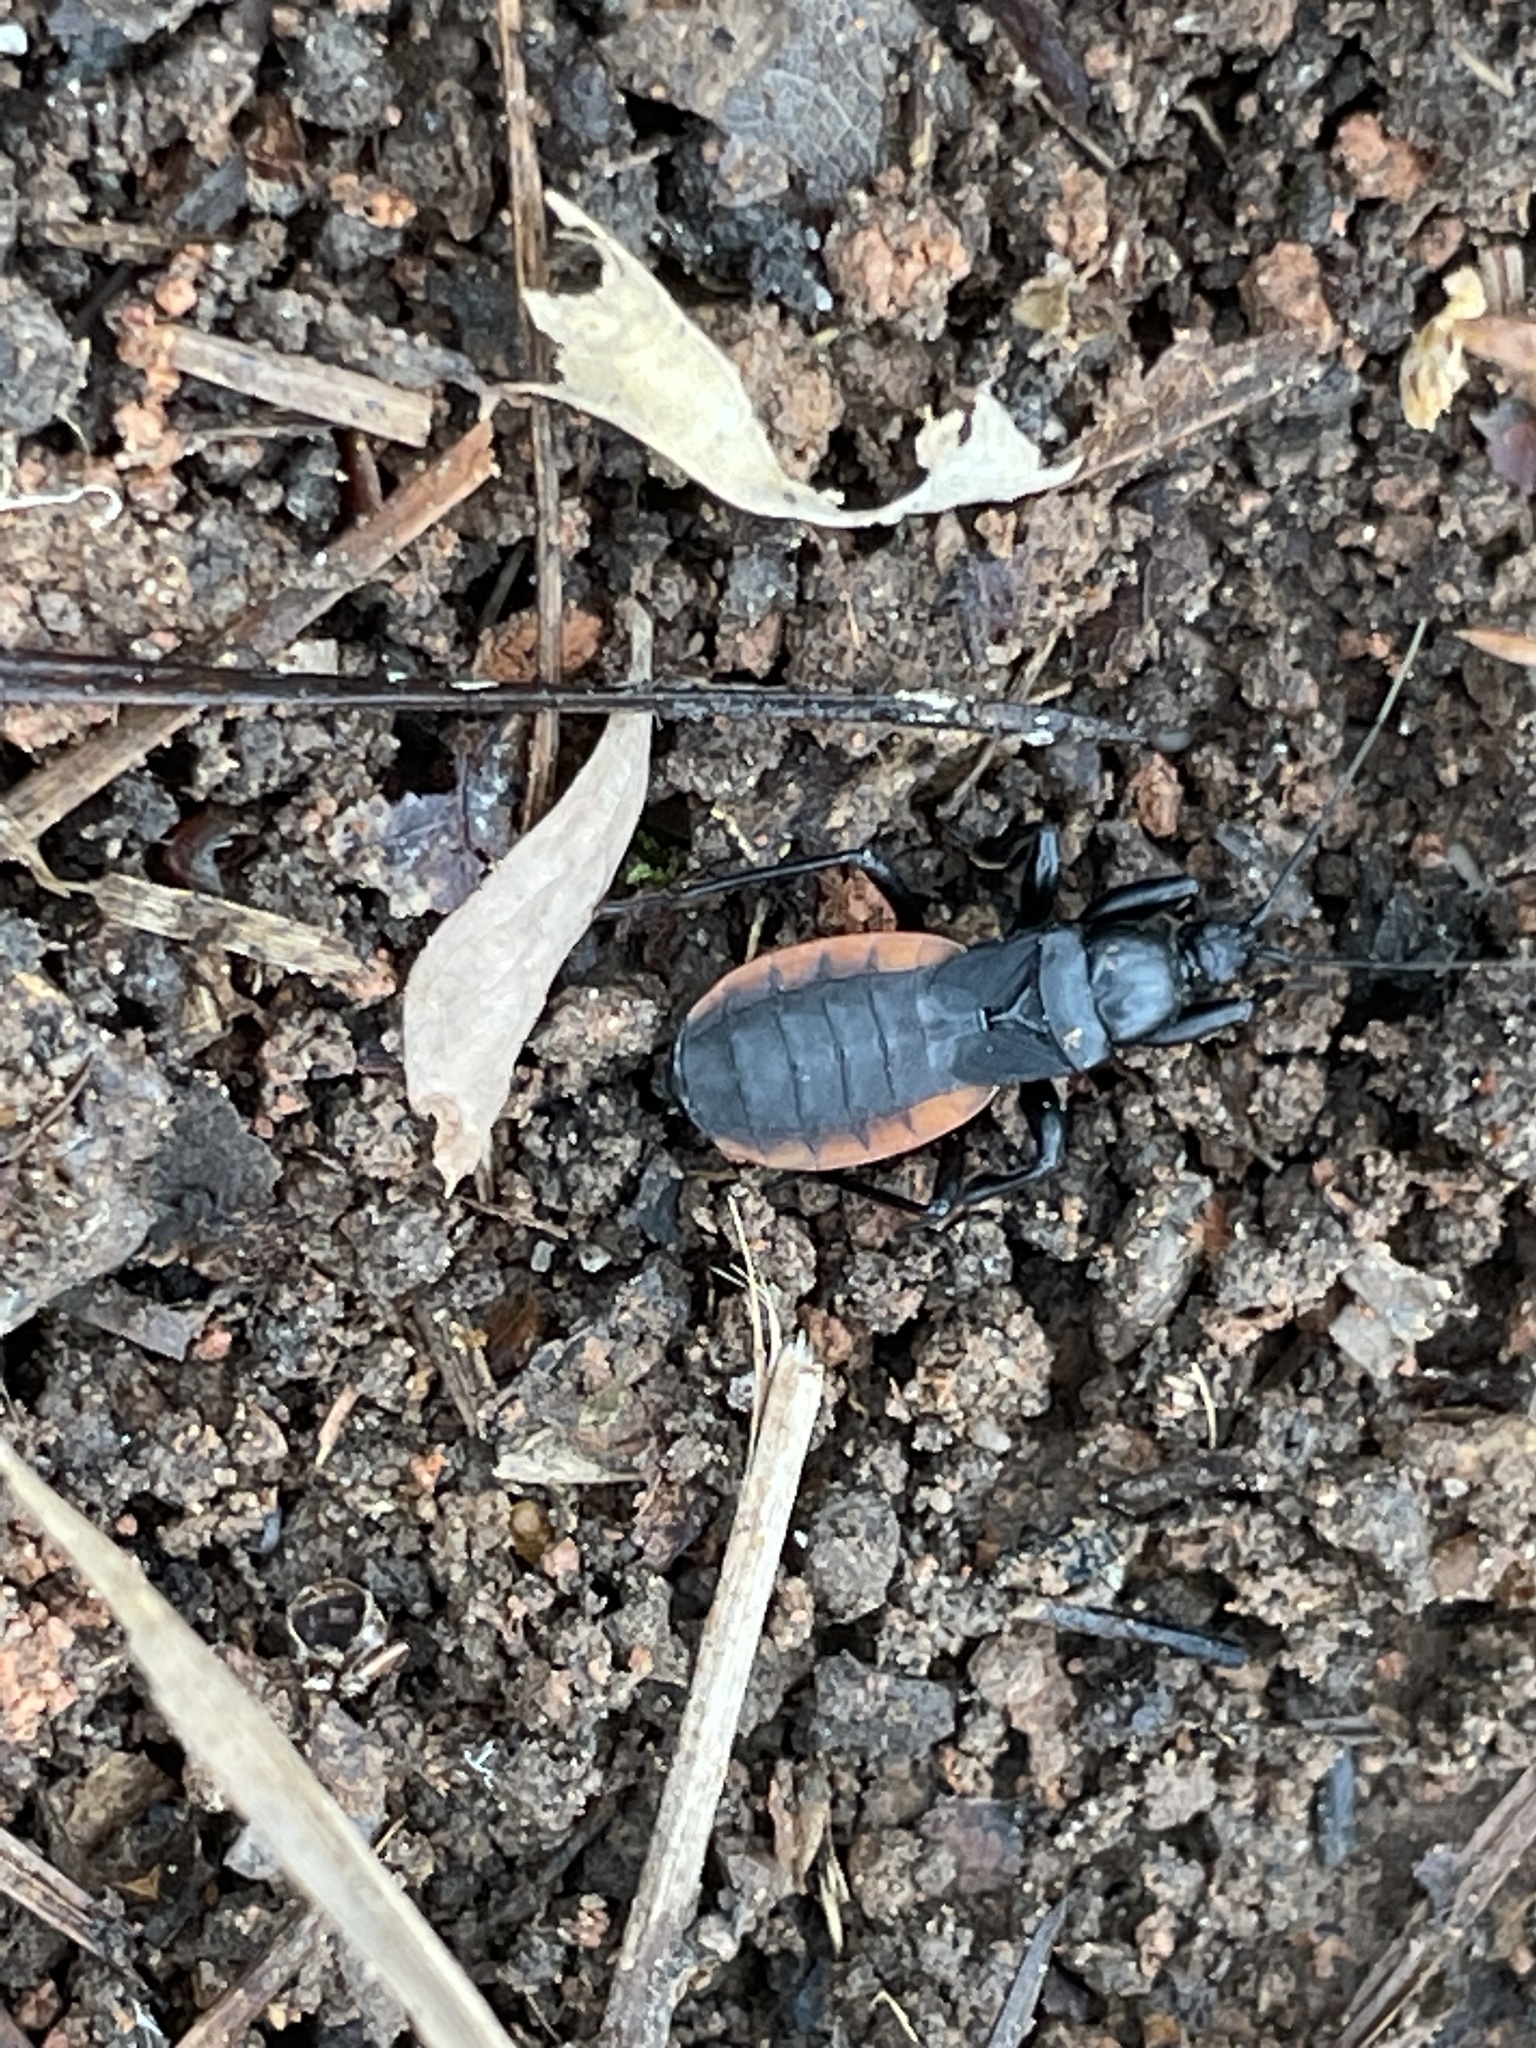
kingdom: Animalia
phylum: Arthropoda
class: Insecta
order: Hemiptera
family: Reduviidae
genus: Melanolestes
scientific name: Melanolestes picipes
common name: Assassin bug
